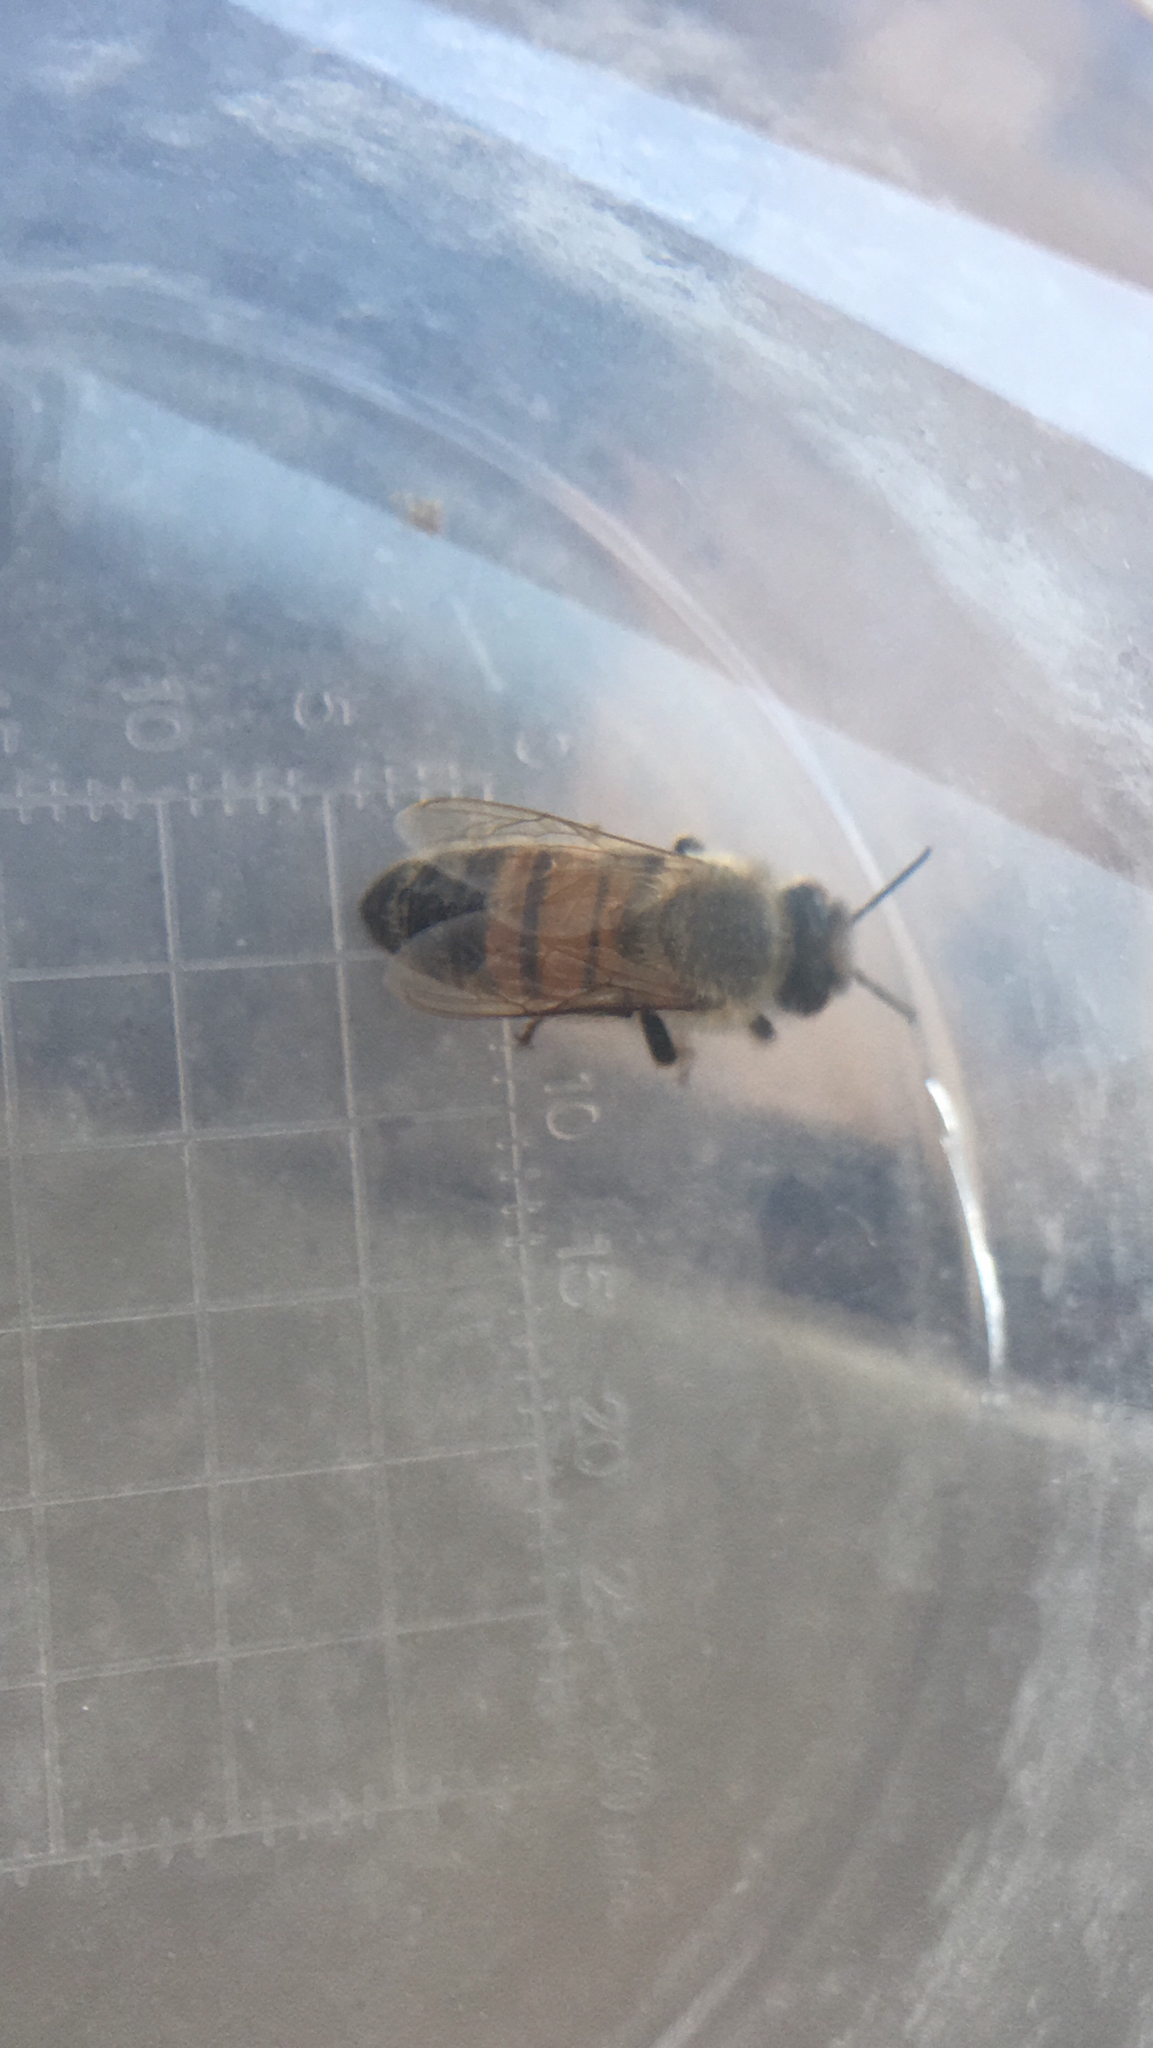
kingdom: Animalia
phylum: Arthropoda
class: Insecta
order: Hymenoptera
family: Apidae
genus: Apis
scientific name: Apis mellifera
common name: Honey bee
